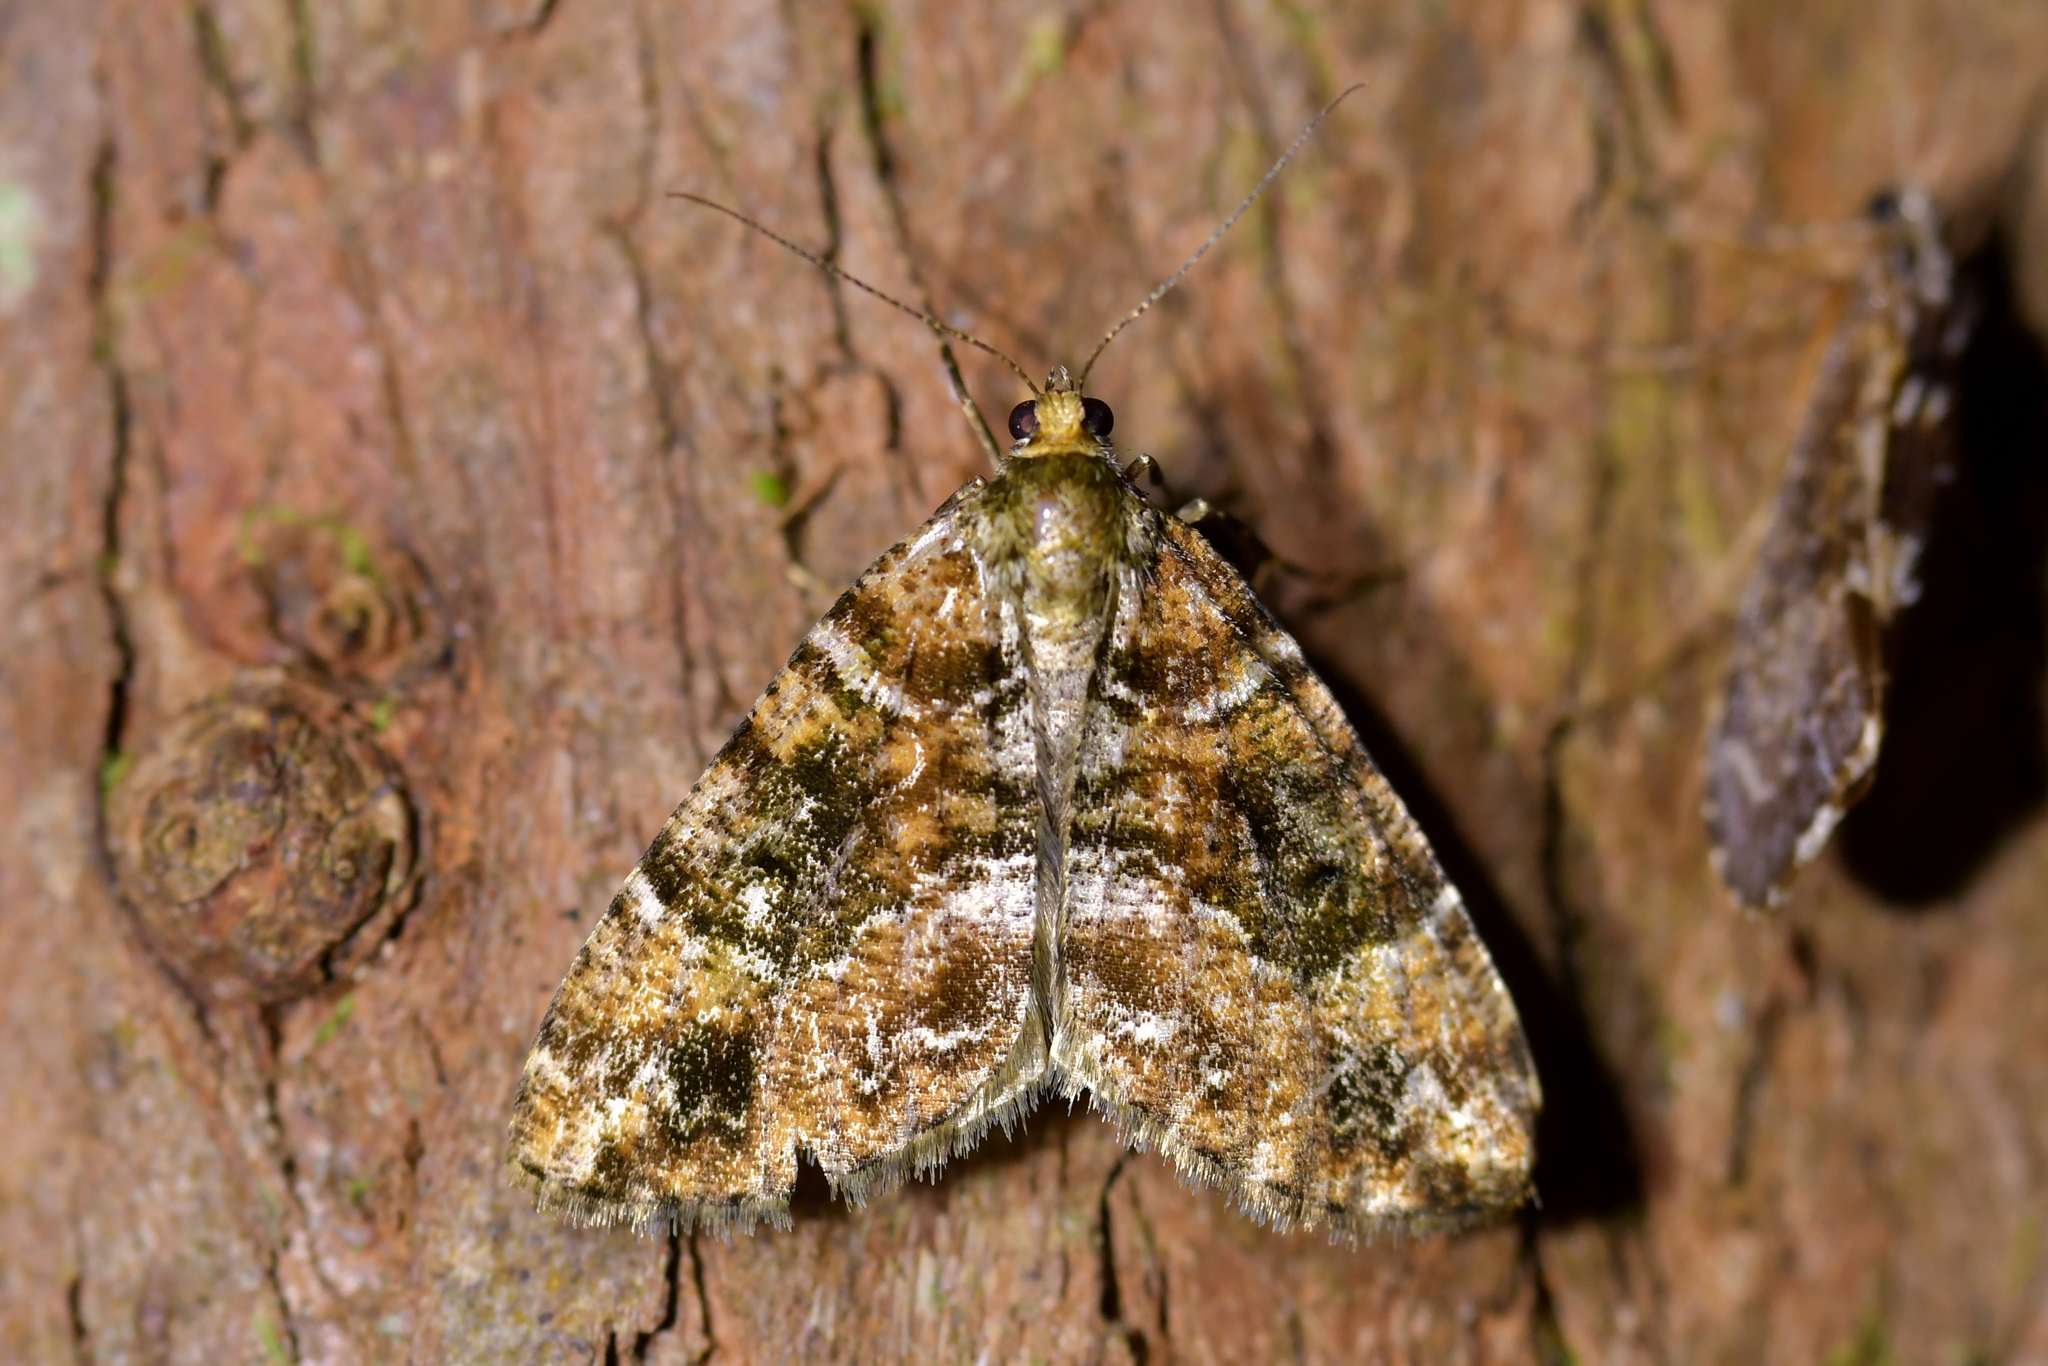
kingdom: Animalia
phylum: Arthropoda
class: Insecta
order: Lepidoptera
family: Geometridae
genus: Pseudocoremia
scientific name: Pseudocoremia productata
